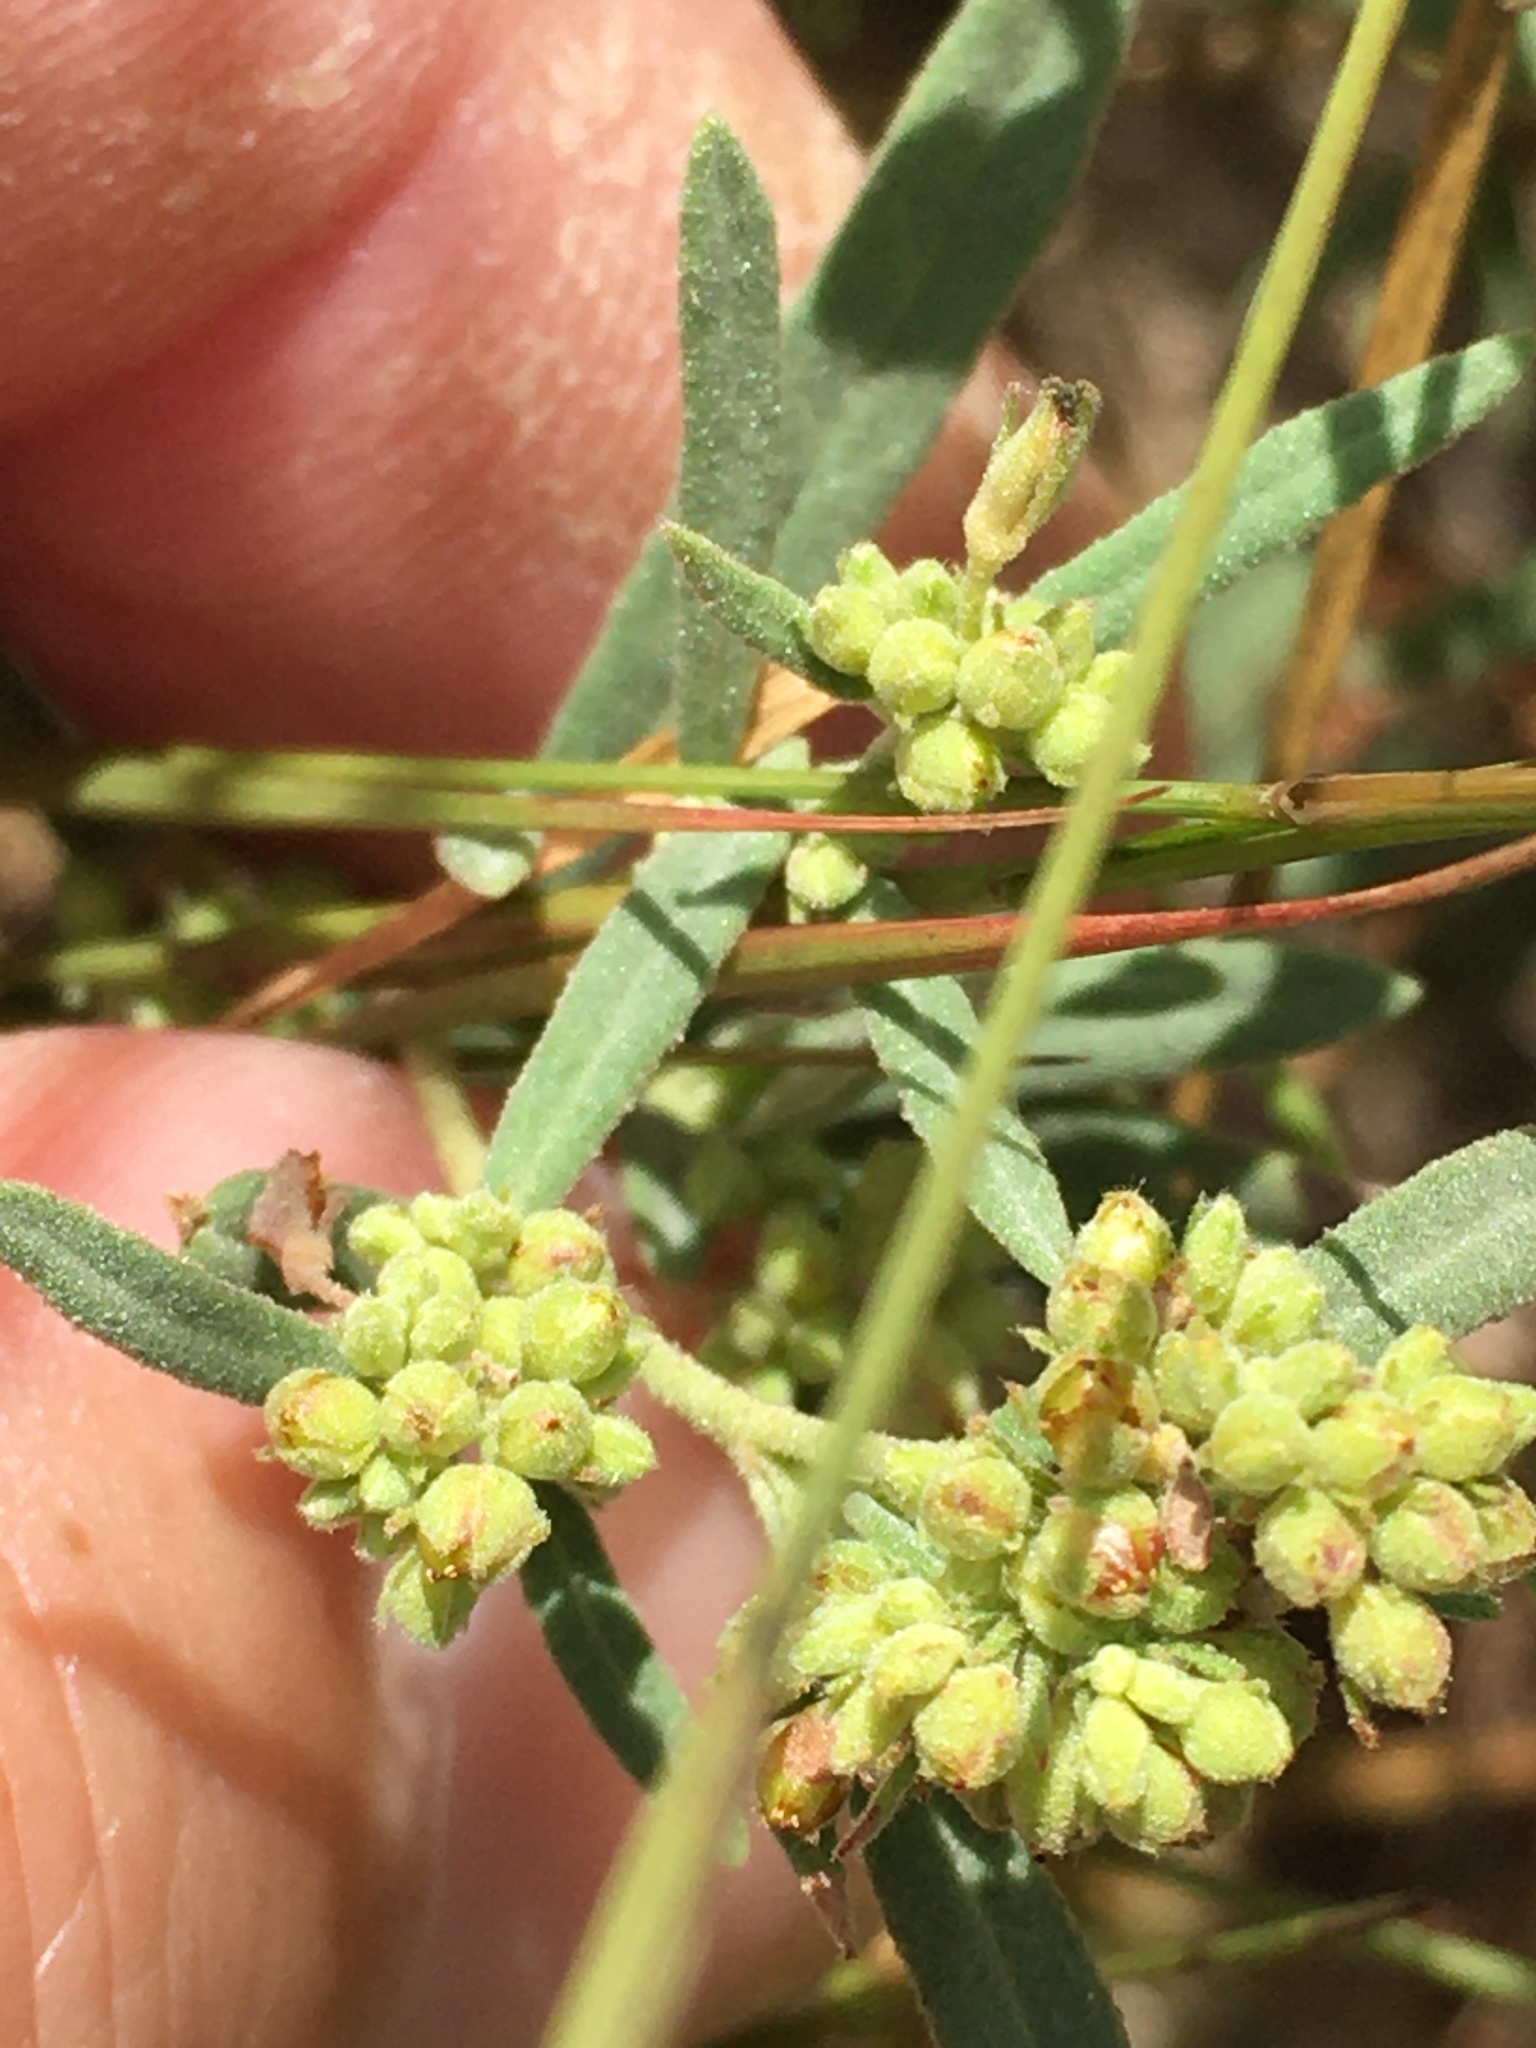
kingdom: Plantae
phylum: Tracheophyta
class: Magnoliopsida
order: Malvales
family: Cistaceae
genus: Crocanthemum
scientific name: Crocanthemum rosmarinifolium
